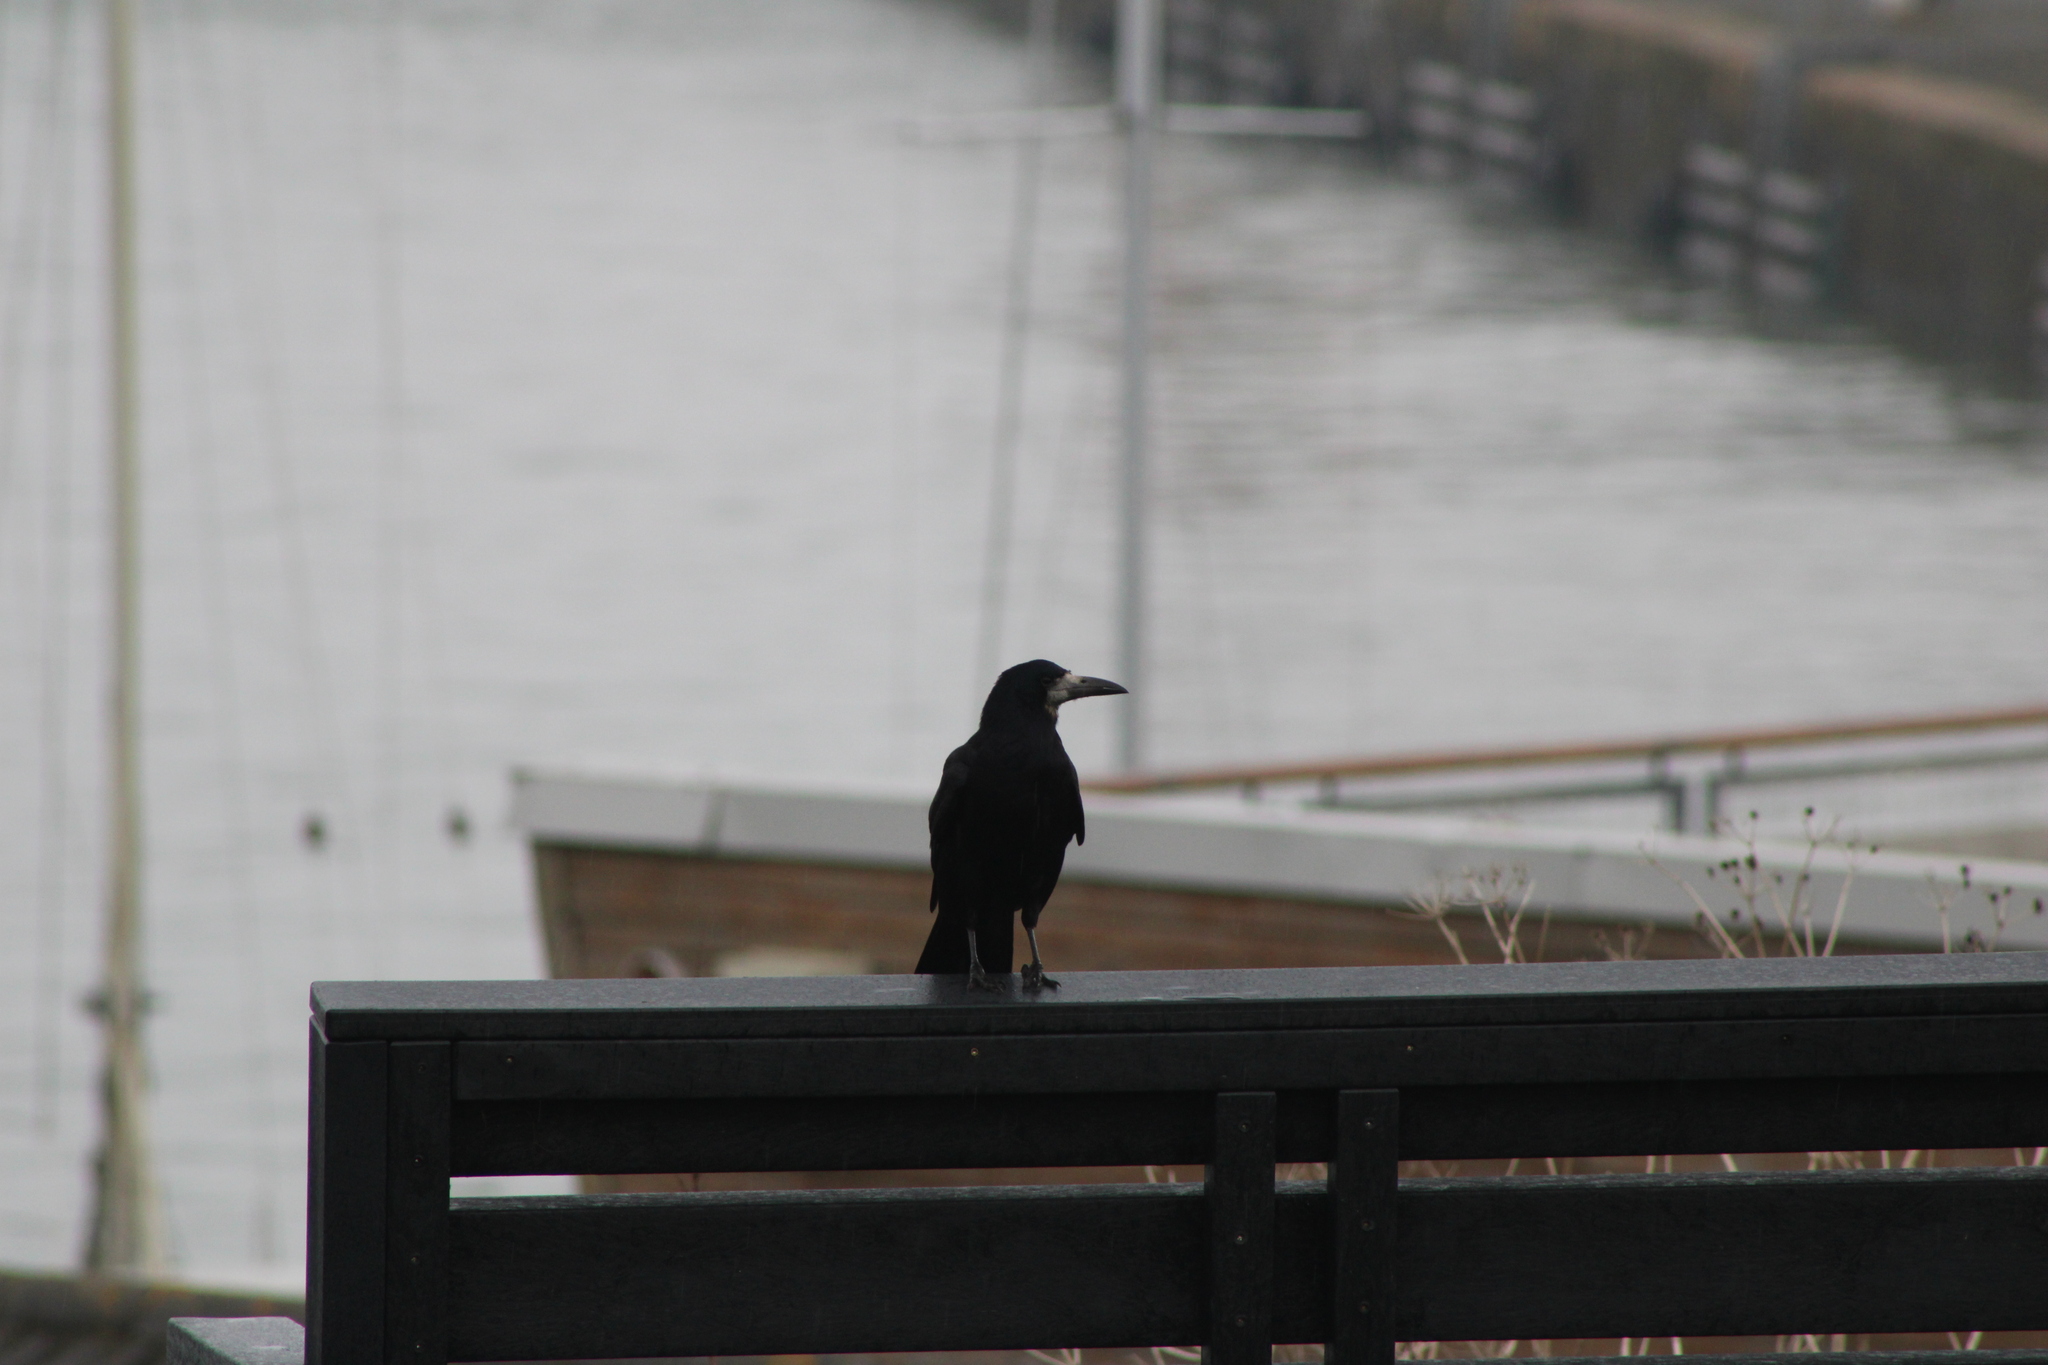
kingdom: Animalia
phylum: Chordata
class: Aves
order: Passeriformes
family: Corvidae
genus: Corvus
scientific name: Corvus frugilegus
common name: Rook
